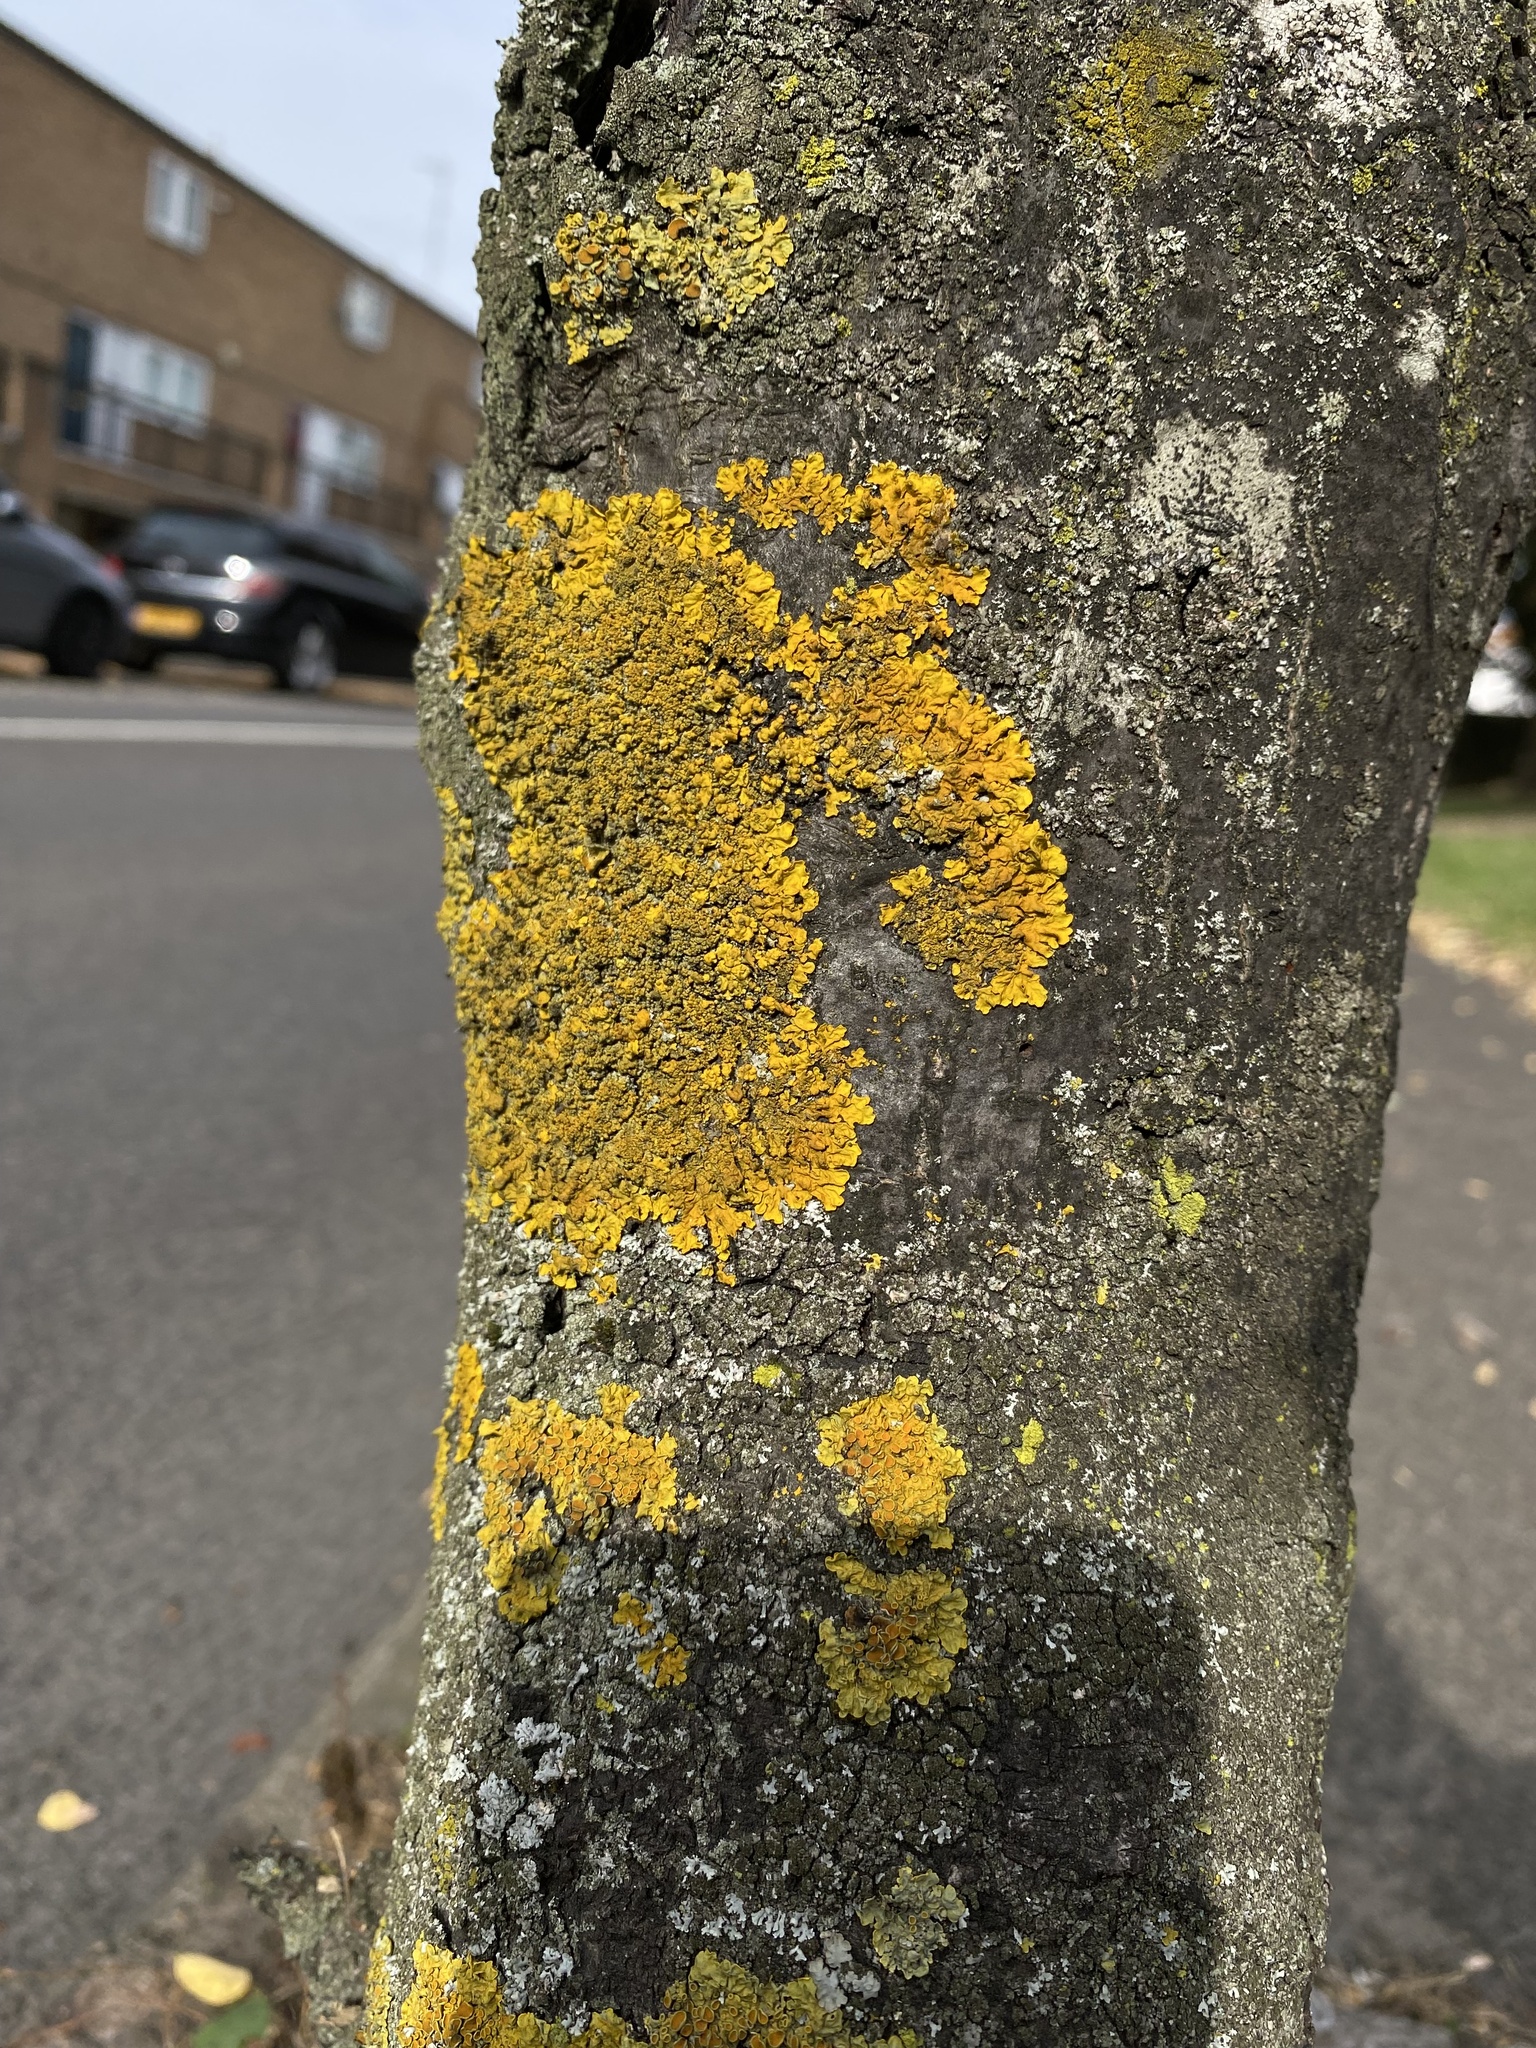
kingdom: Fungi
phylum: Ascomycota
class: Lecanoromycetes
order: Teloschistales
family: Teloschistaceae
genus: Xanthoria
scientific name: Xanthoria parietina
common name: Common orange lichen
